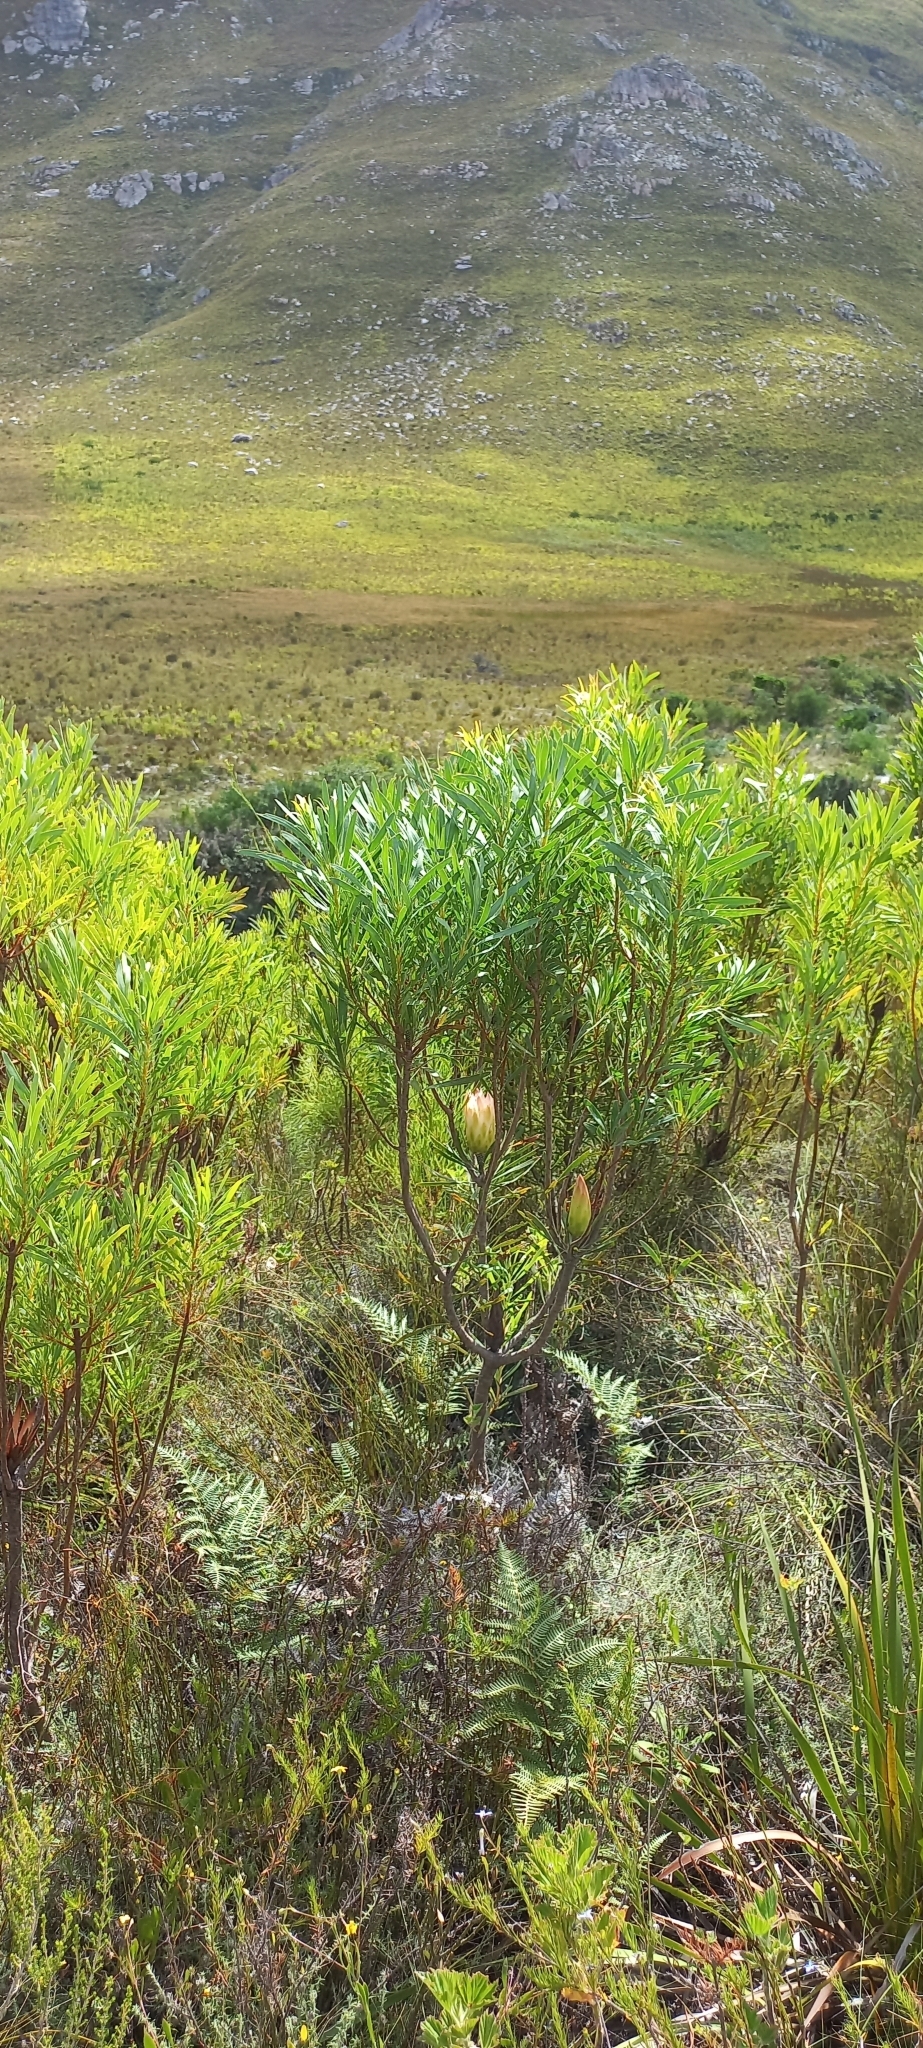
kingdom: Plantae
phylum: Tracheophyta
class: Magnoliopsida
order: Proteales
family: Proteaceae
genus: Protea
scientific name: Protea repens
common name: Sugarbush
